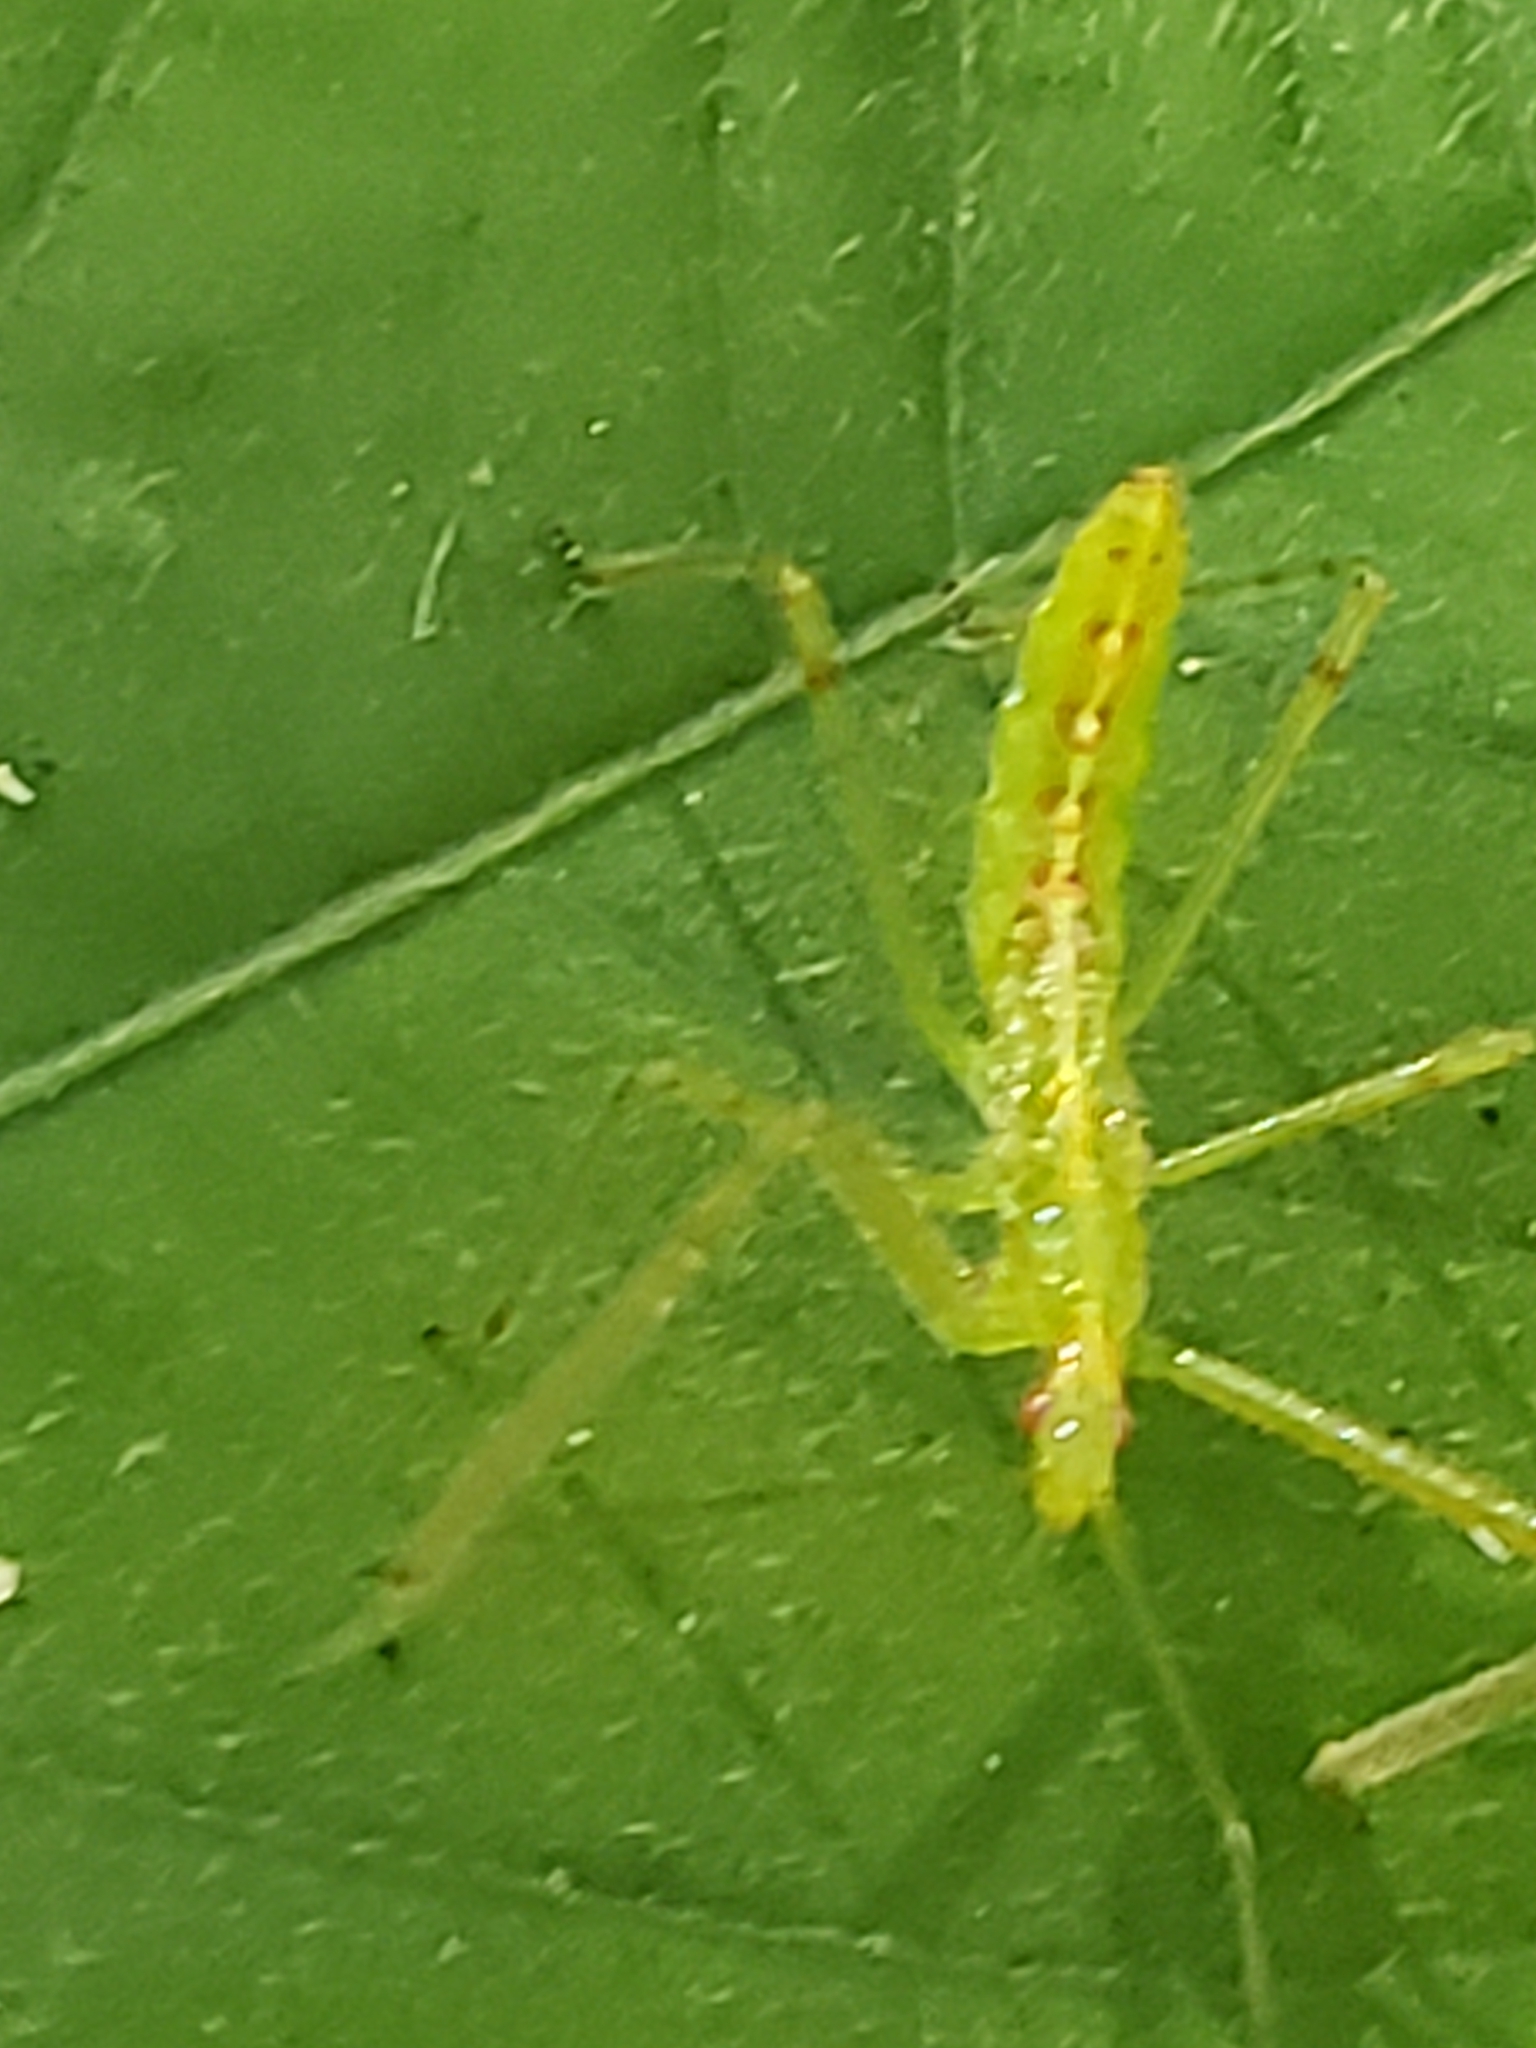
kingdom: Animalia
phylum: Arthropoda
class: Insecta
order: Hemiptera
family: Reduviidae
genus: Zelus
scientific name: Zelus luridus
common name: Pale green assassin bug
